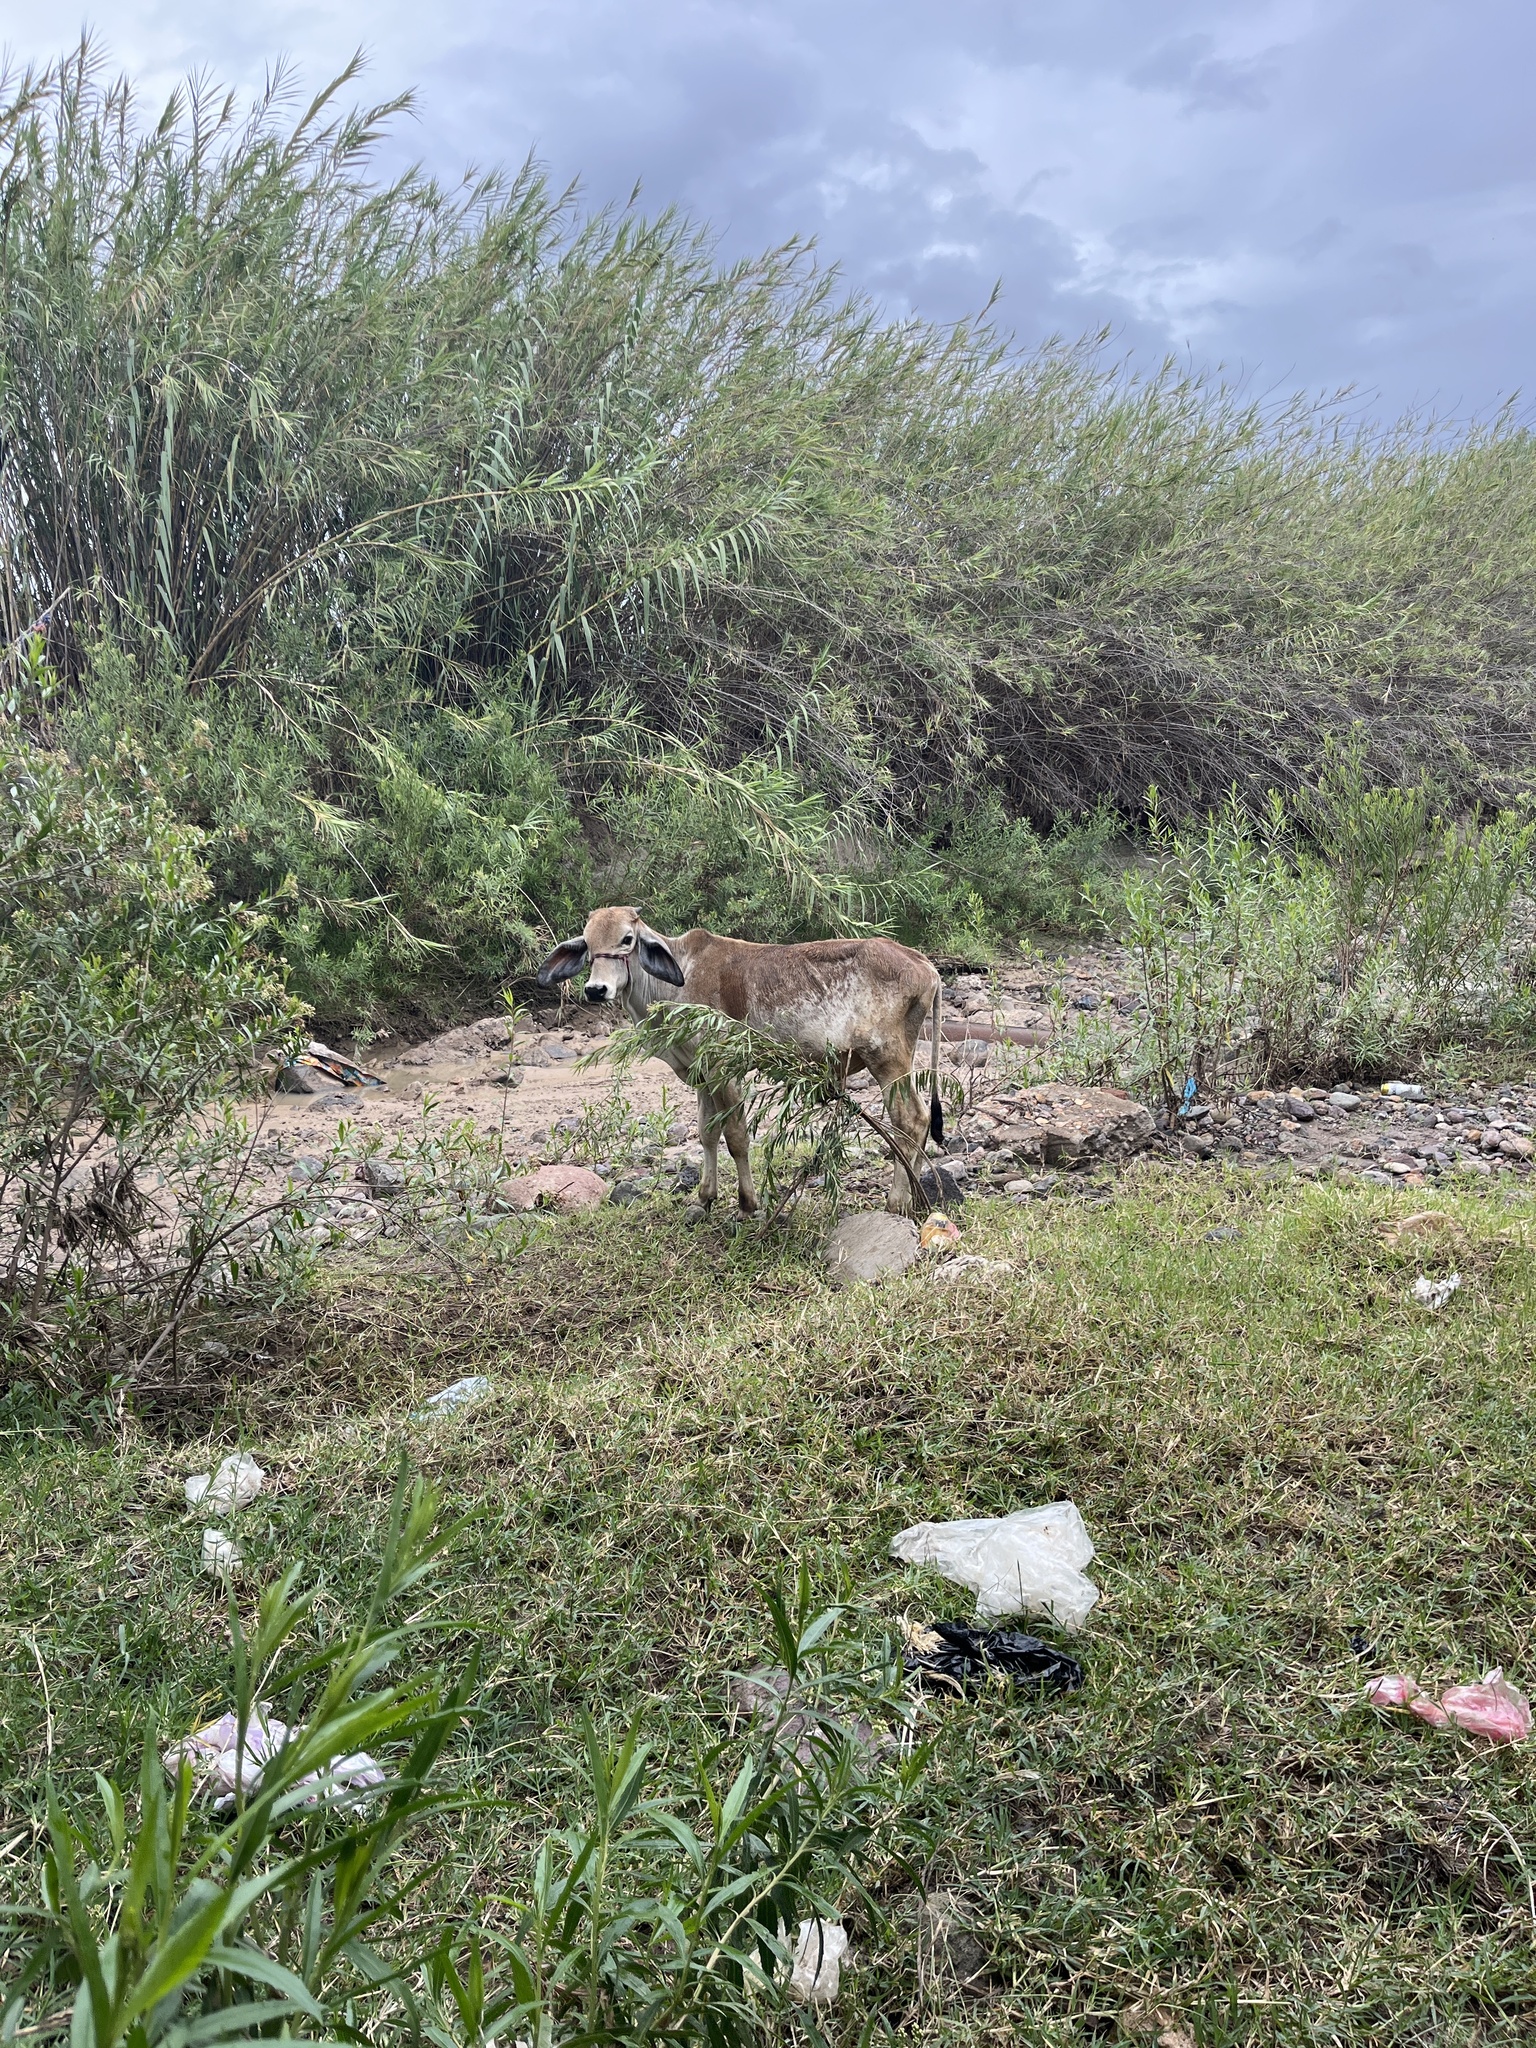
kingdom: Animalia
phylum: Chordata
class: Mammalia
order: Artiodactyla
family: Bovidae
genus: Bos
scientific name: Bos taurus
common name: Domesticated cattle
